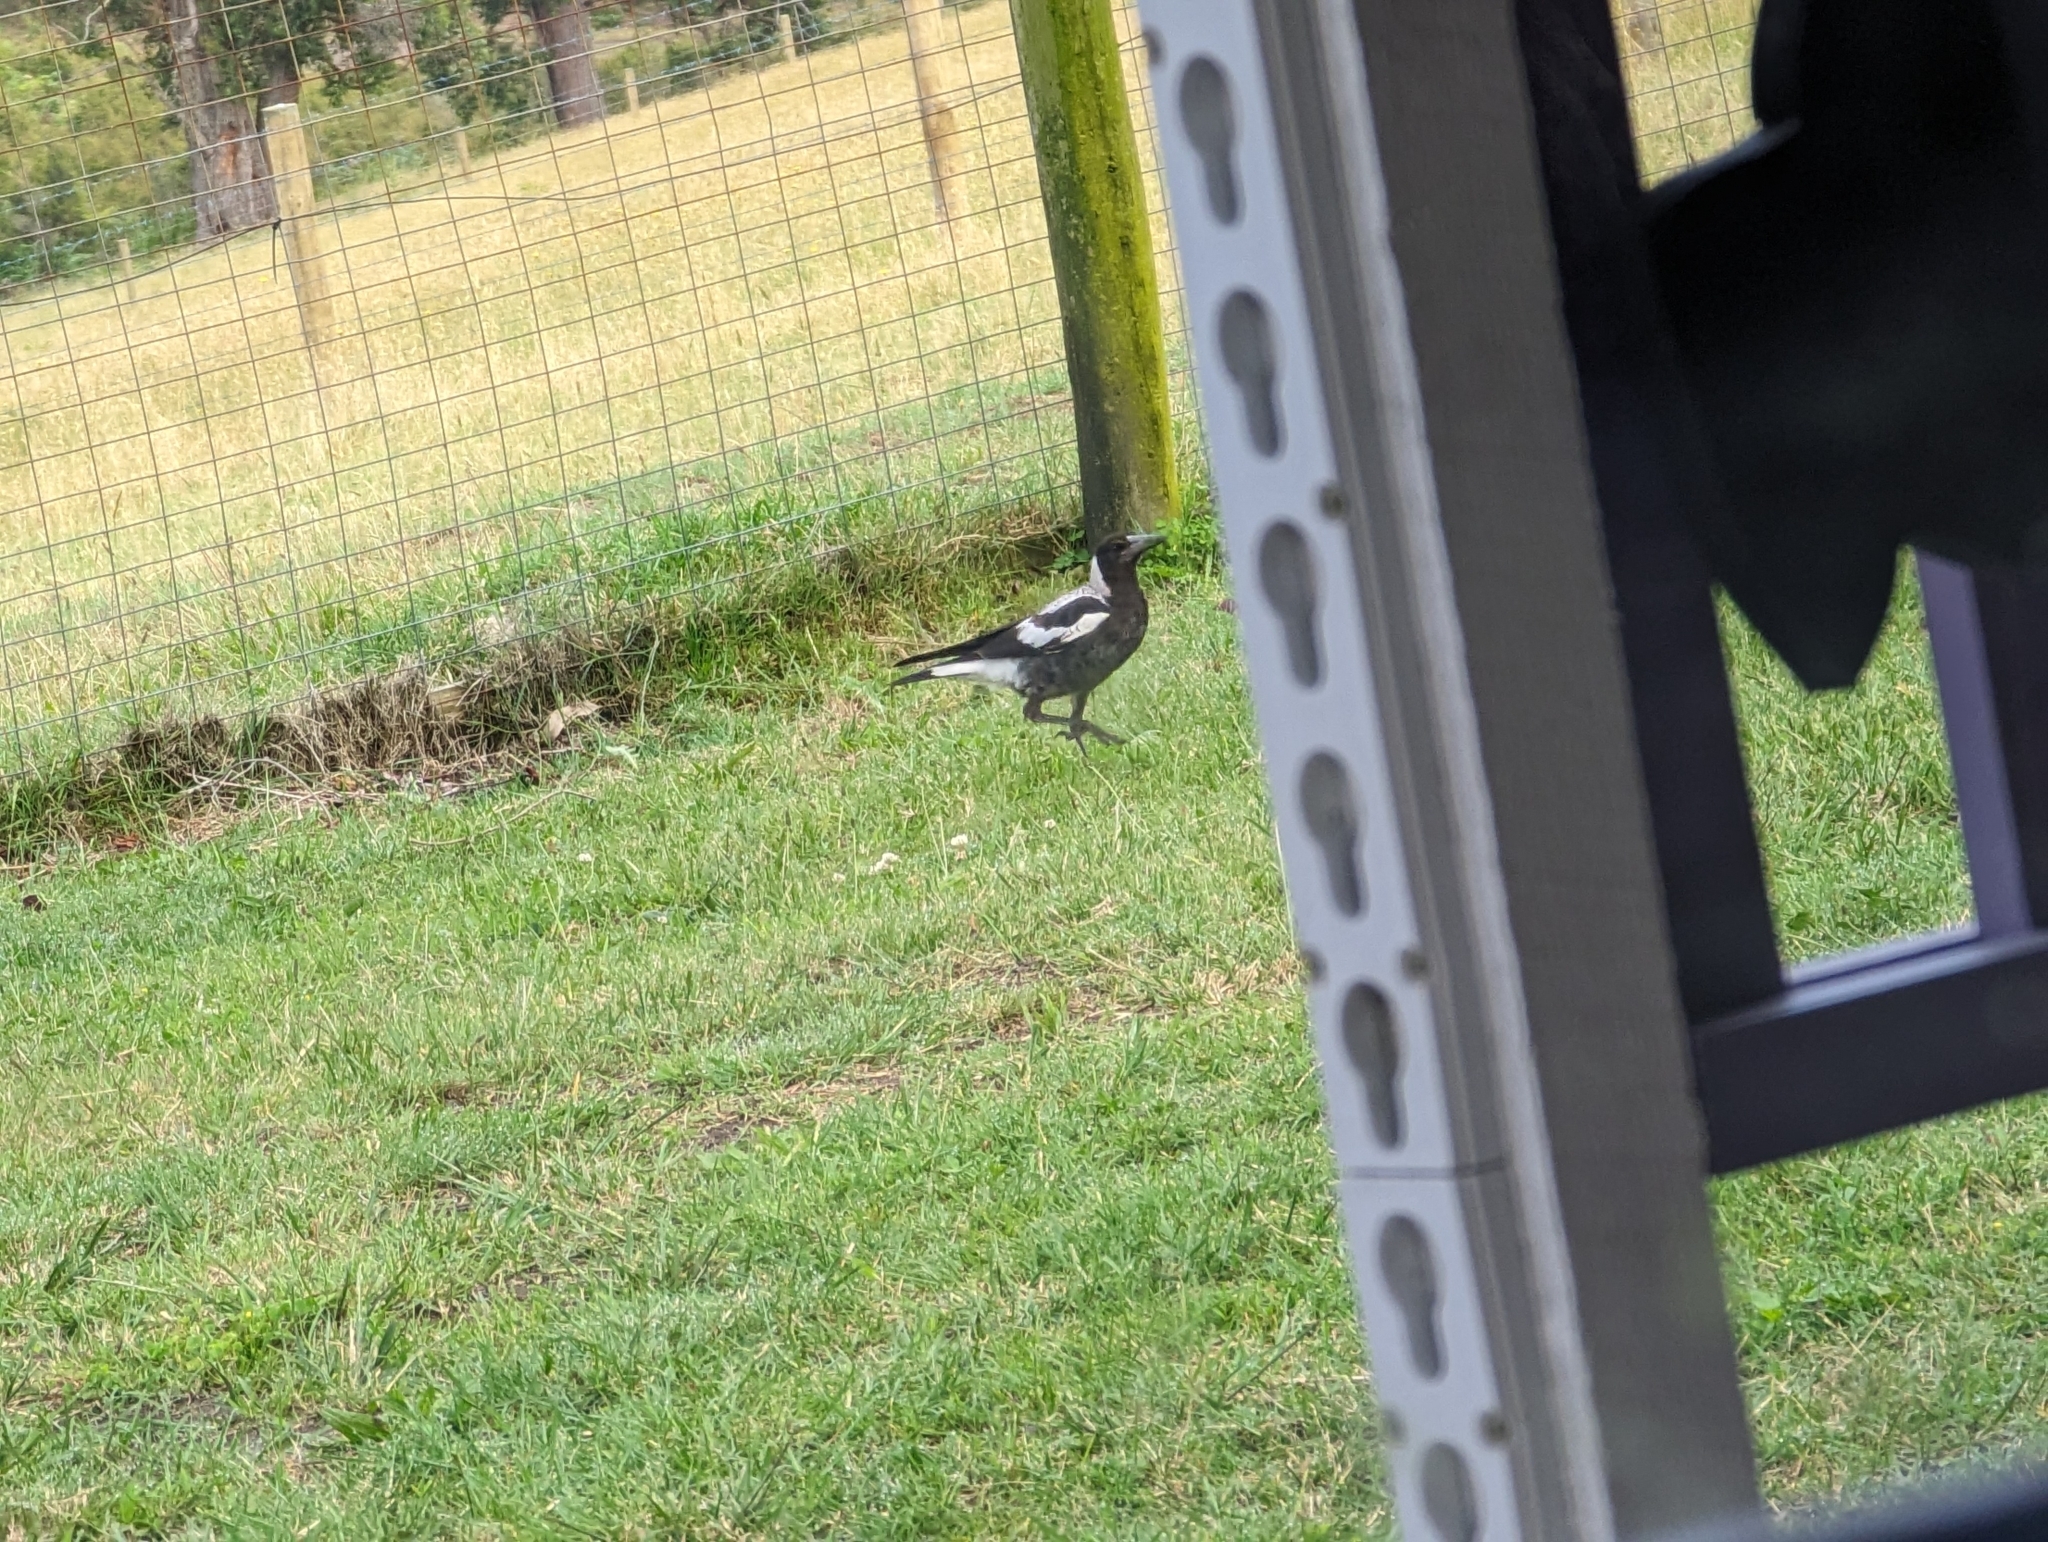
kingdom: Animalia
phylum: Chordata
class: Aves
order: Passeriformes
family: Cracticidae
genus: Gymnorhina
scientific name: Gymnorhina tibicen
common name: Australian magpie
